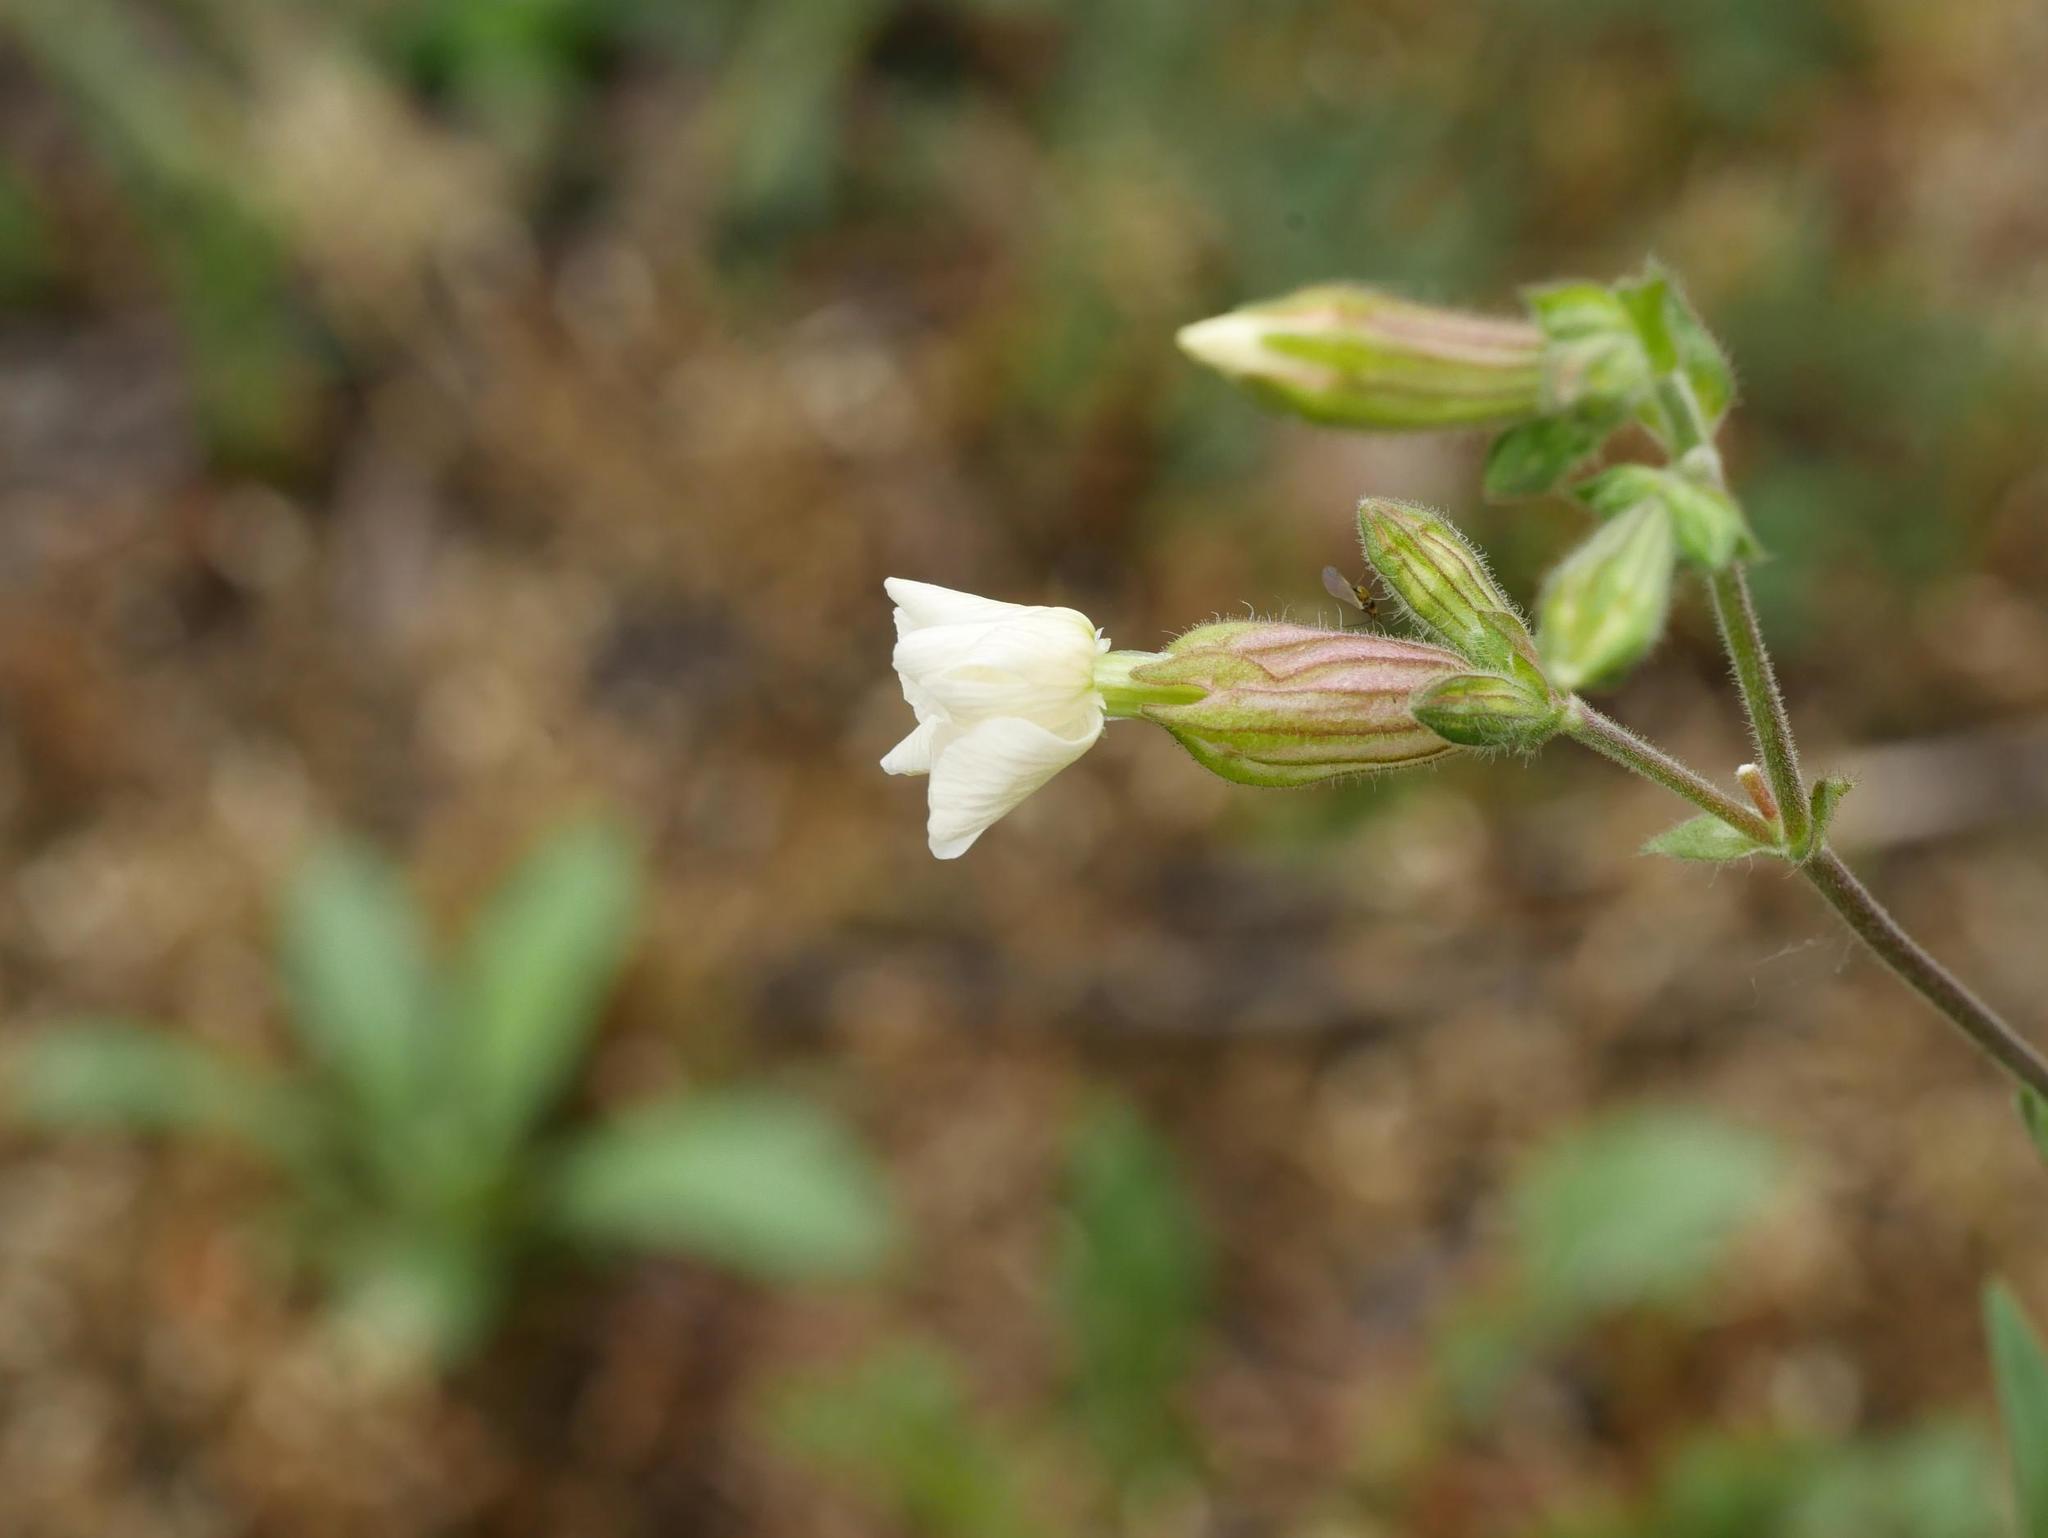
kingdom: Plantae
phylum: Tracheophyta
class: Magnoliopsida
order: Caryophyllales
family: Caryophyllaceae
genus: Silene
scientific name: Silene latifolia
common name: White campion
